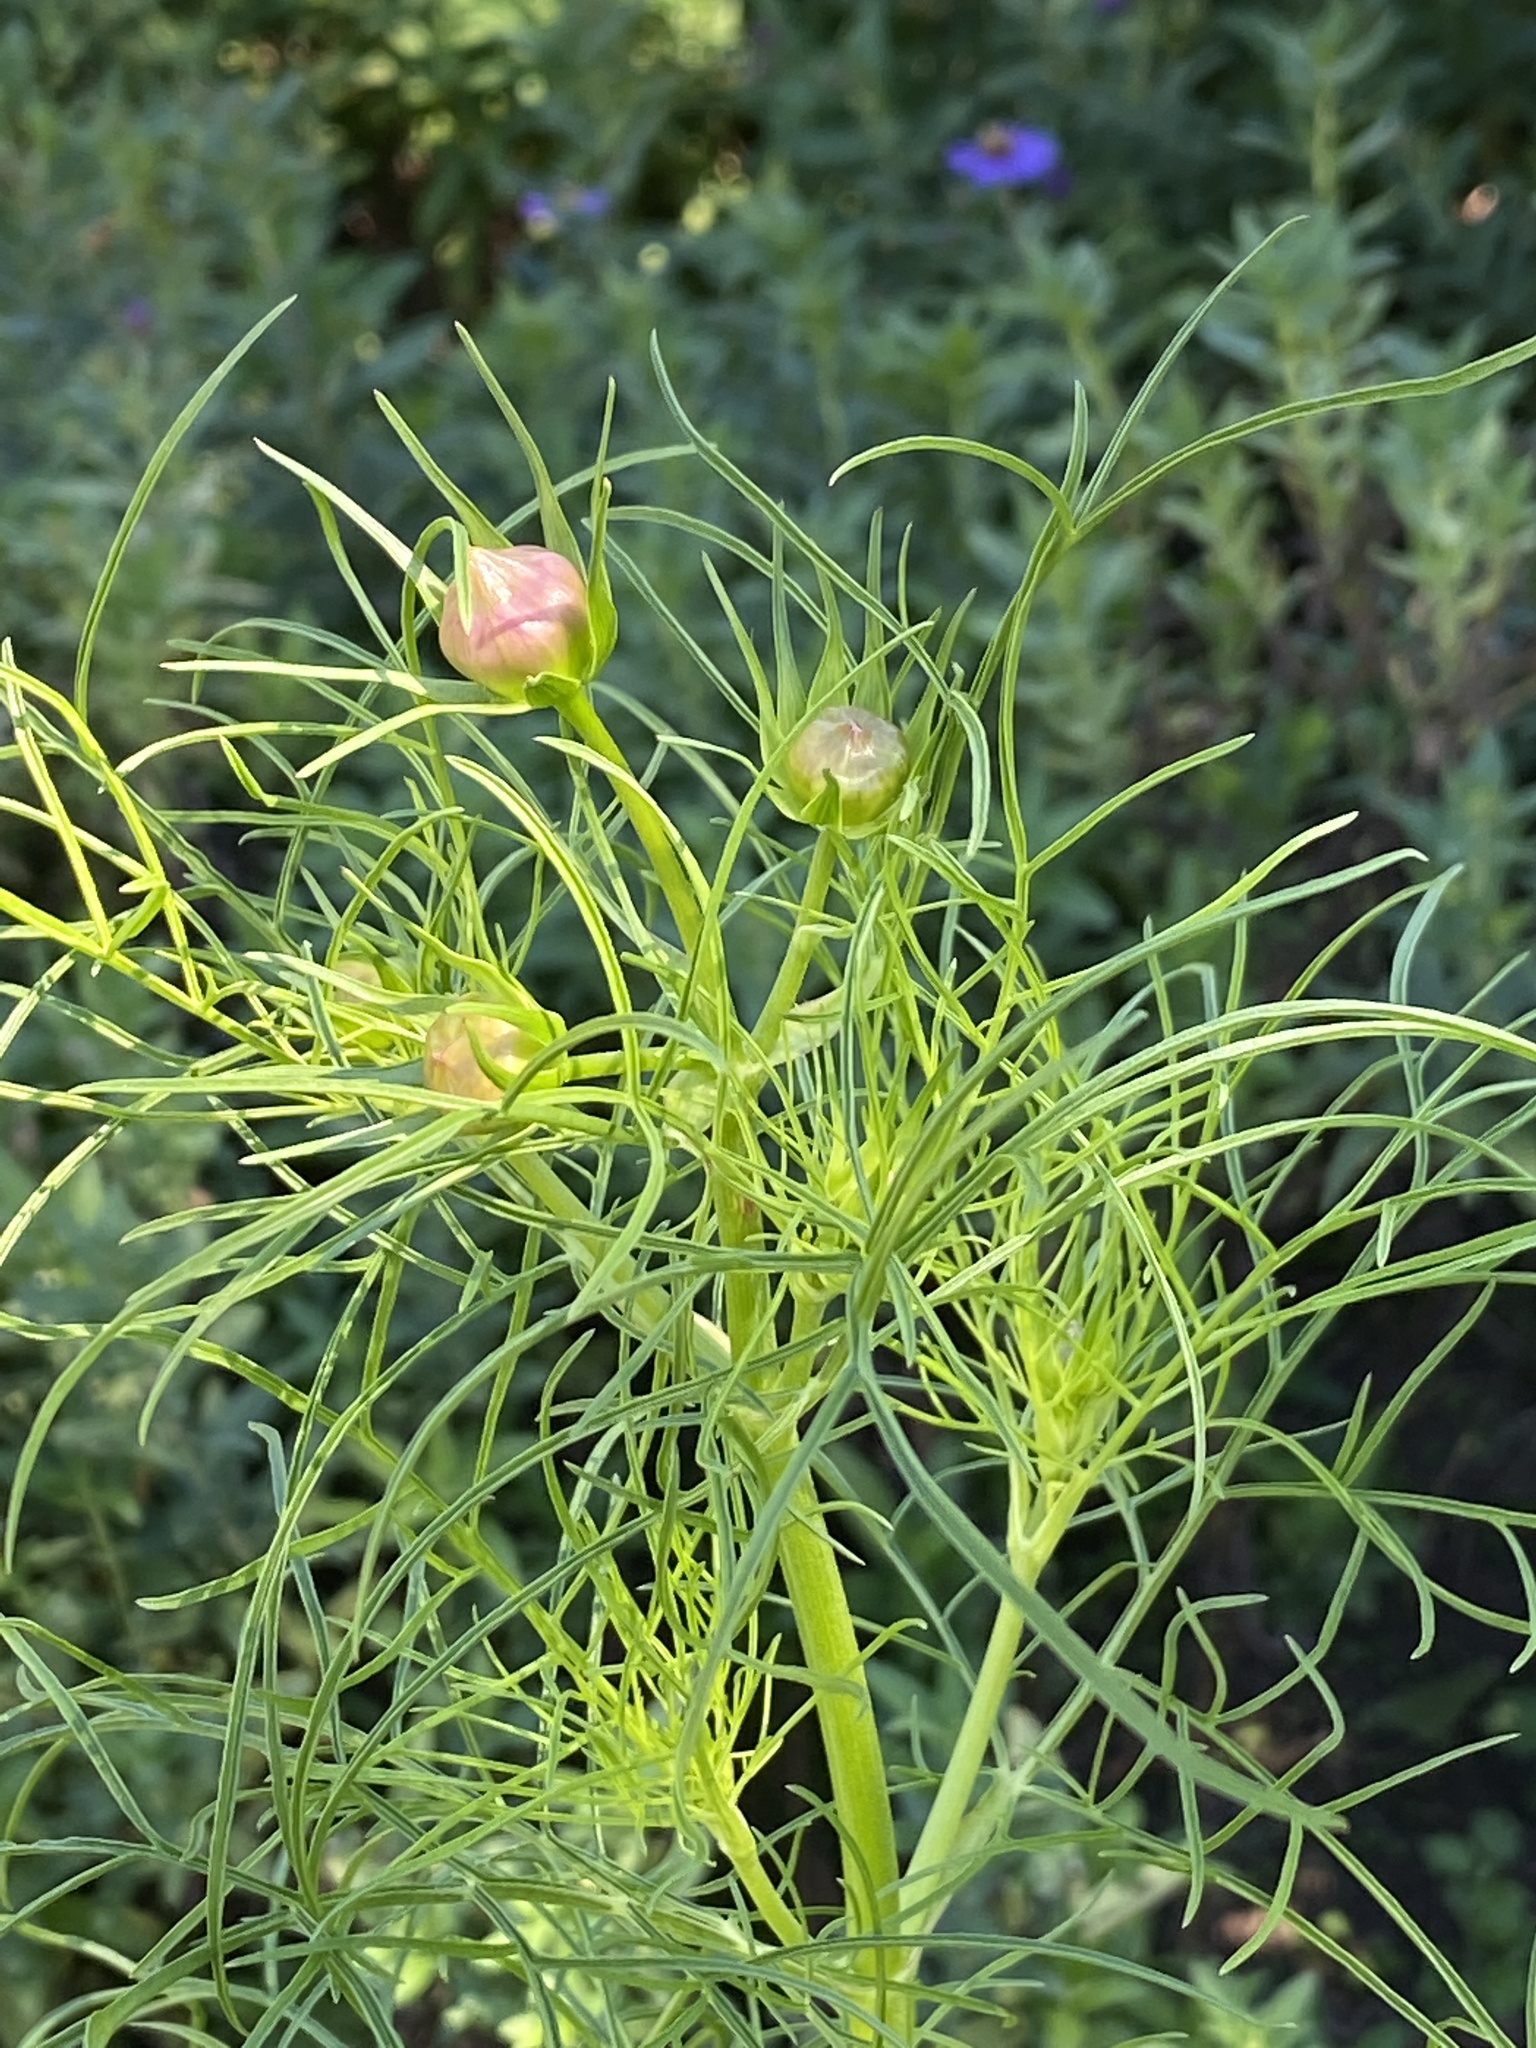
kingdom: Plantae
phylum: Tracheophyta
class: Magnoliopsida
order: Asterales
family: Asteraceae
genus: Cosmos
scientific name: Cosmos bipinnatus
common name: Garden cosmos
